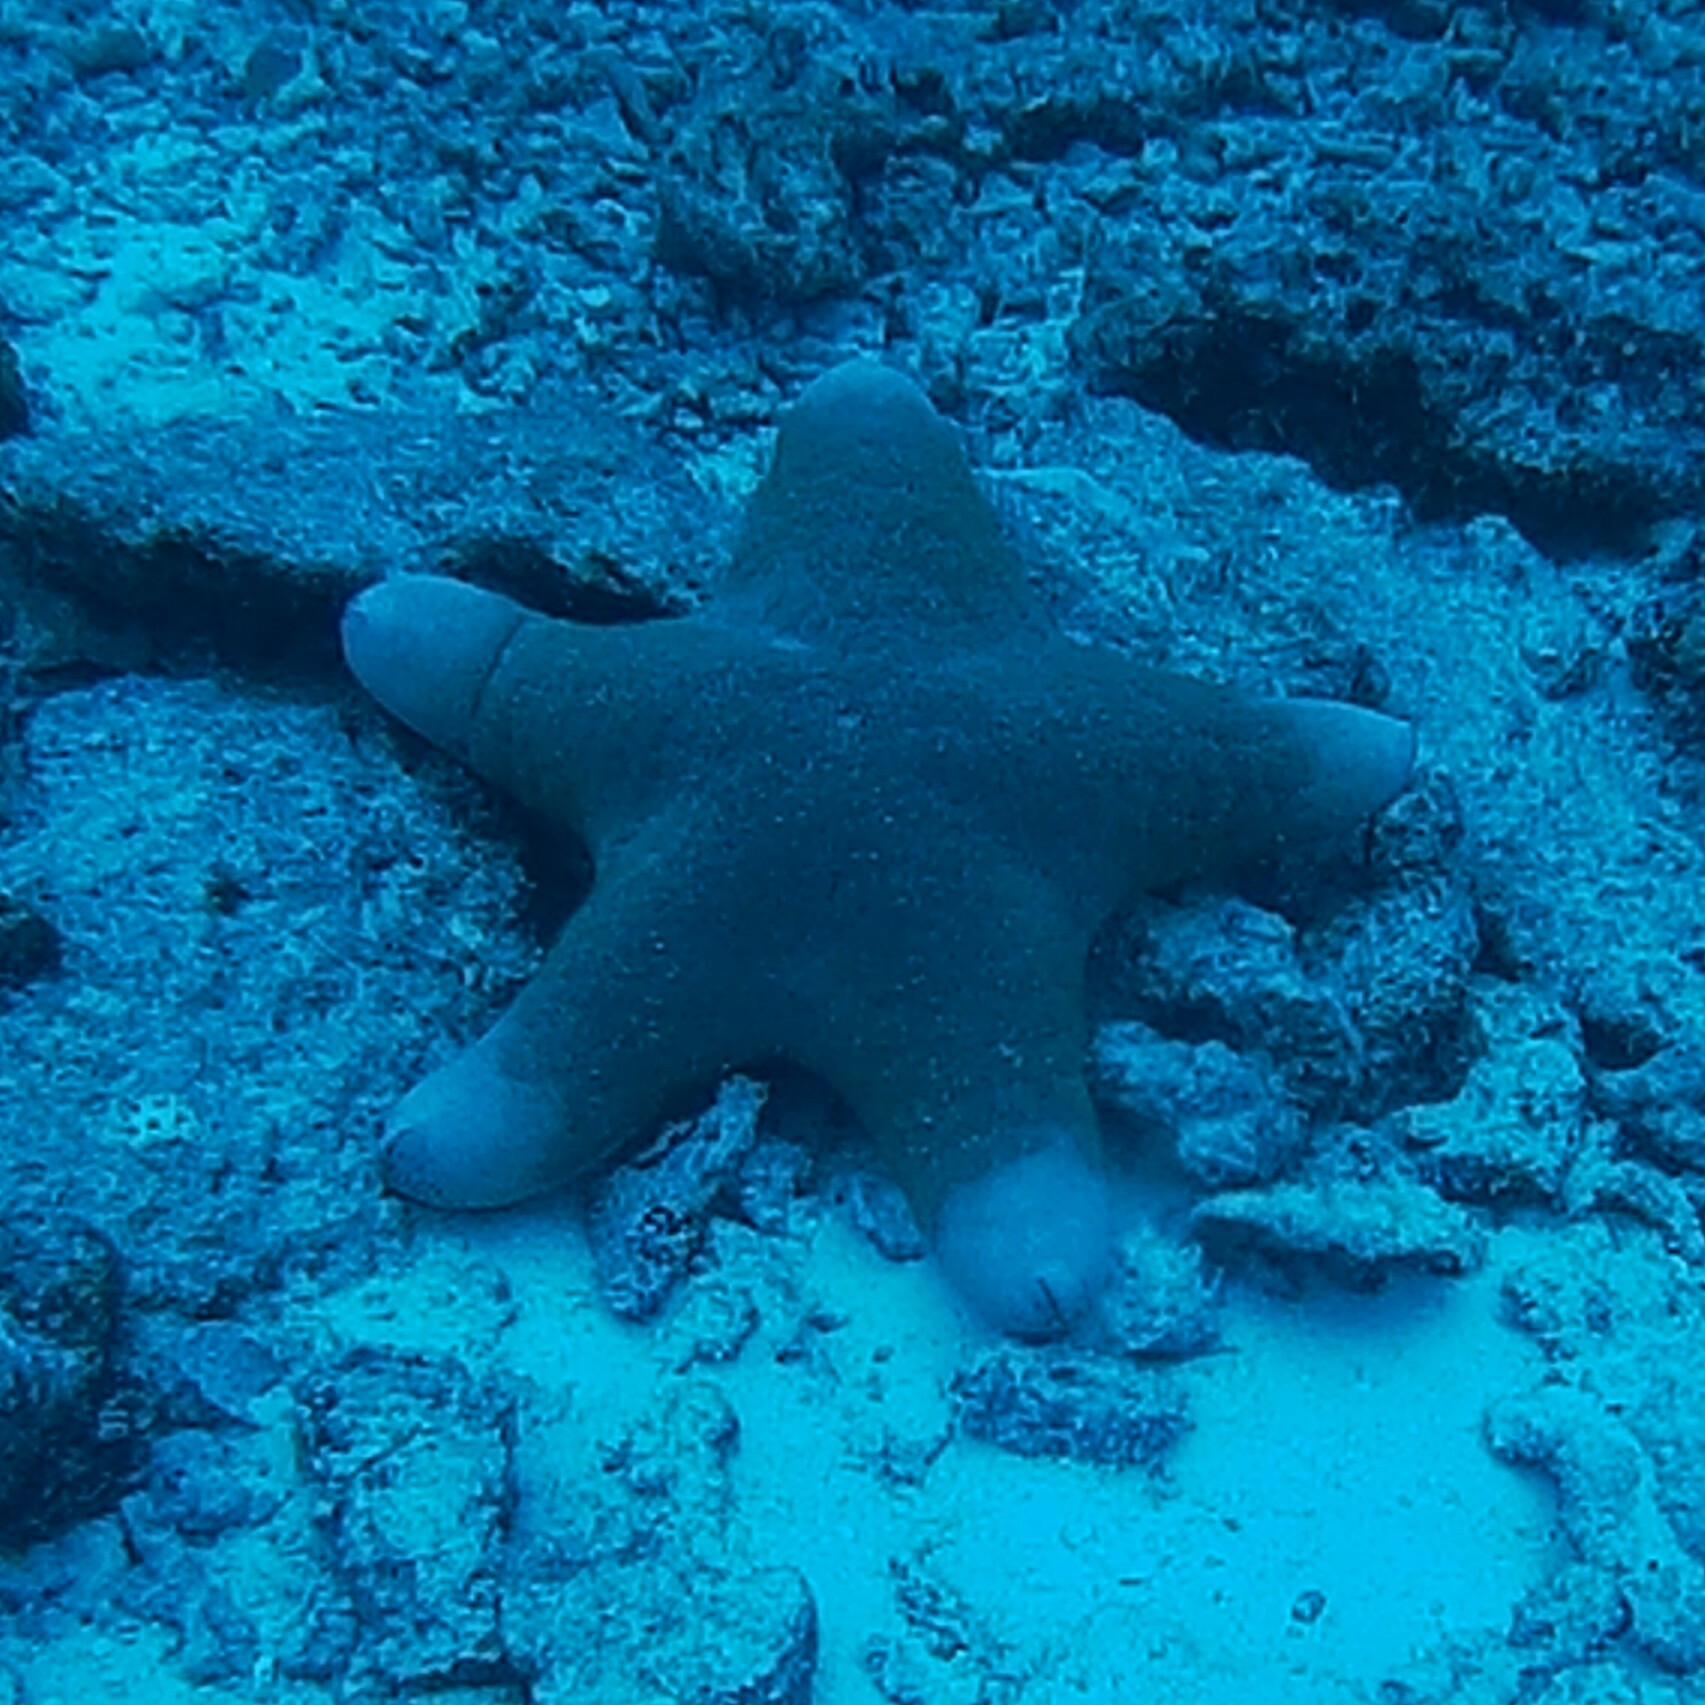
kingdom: Animalia
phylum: Echinodermata
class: Asteroidea
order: Valvatida
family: Oreasteridae
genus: Choriaster
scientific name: Choriaster granulatus
